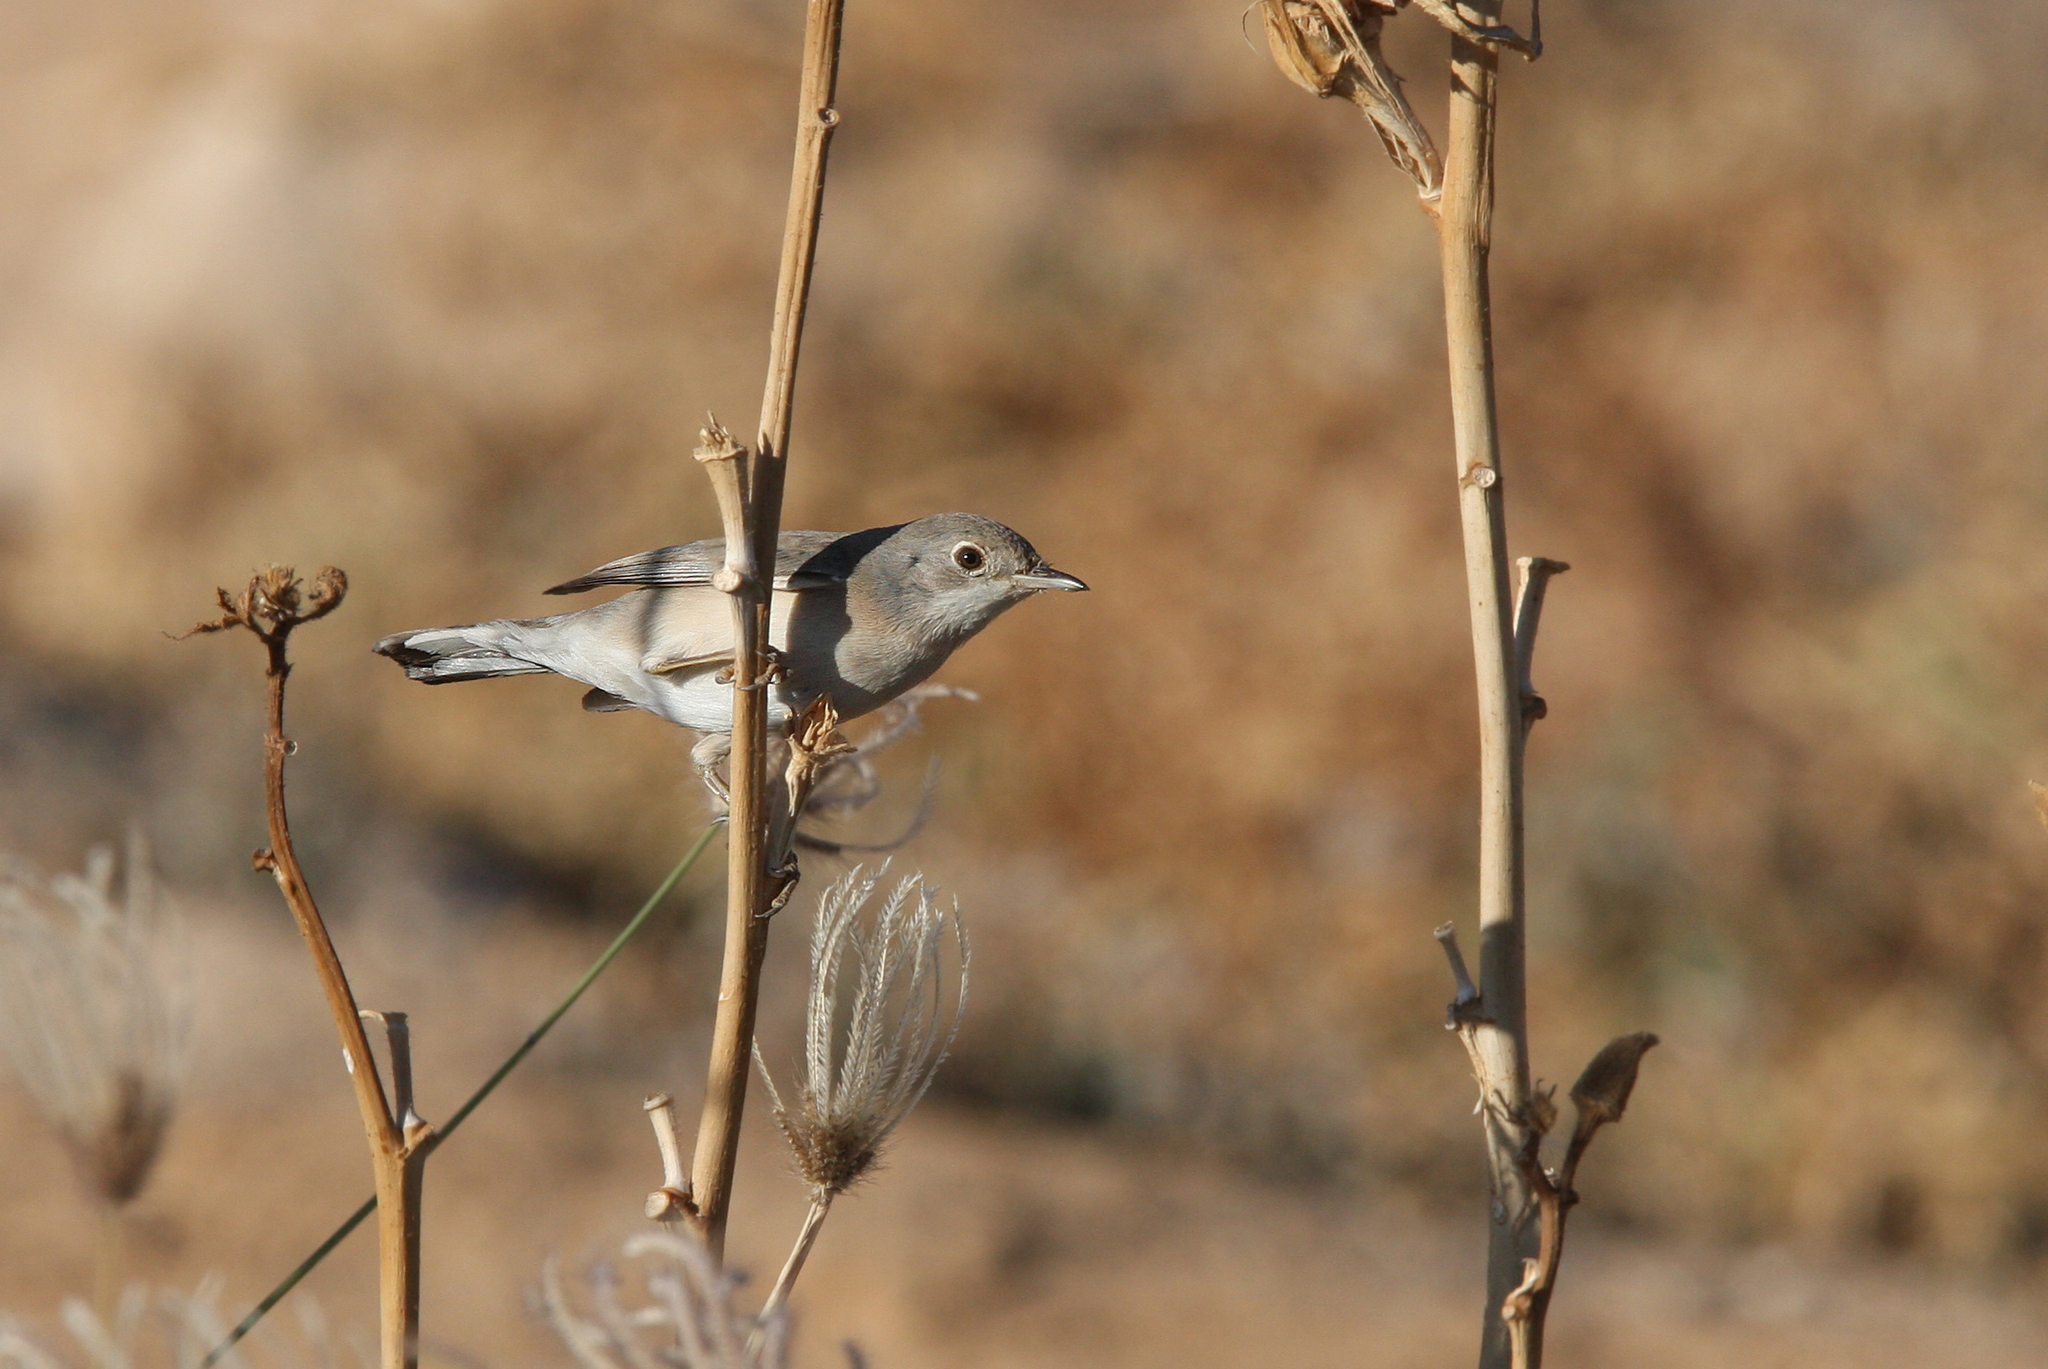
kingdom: Animalia
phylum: Chordata
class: Aves
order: Passeriformes
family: Sylviidae
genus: Sylvia
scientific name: Sylvia mystacea
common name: Menetries's warbler
